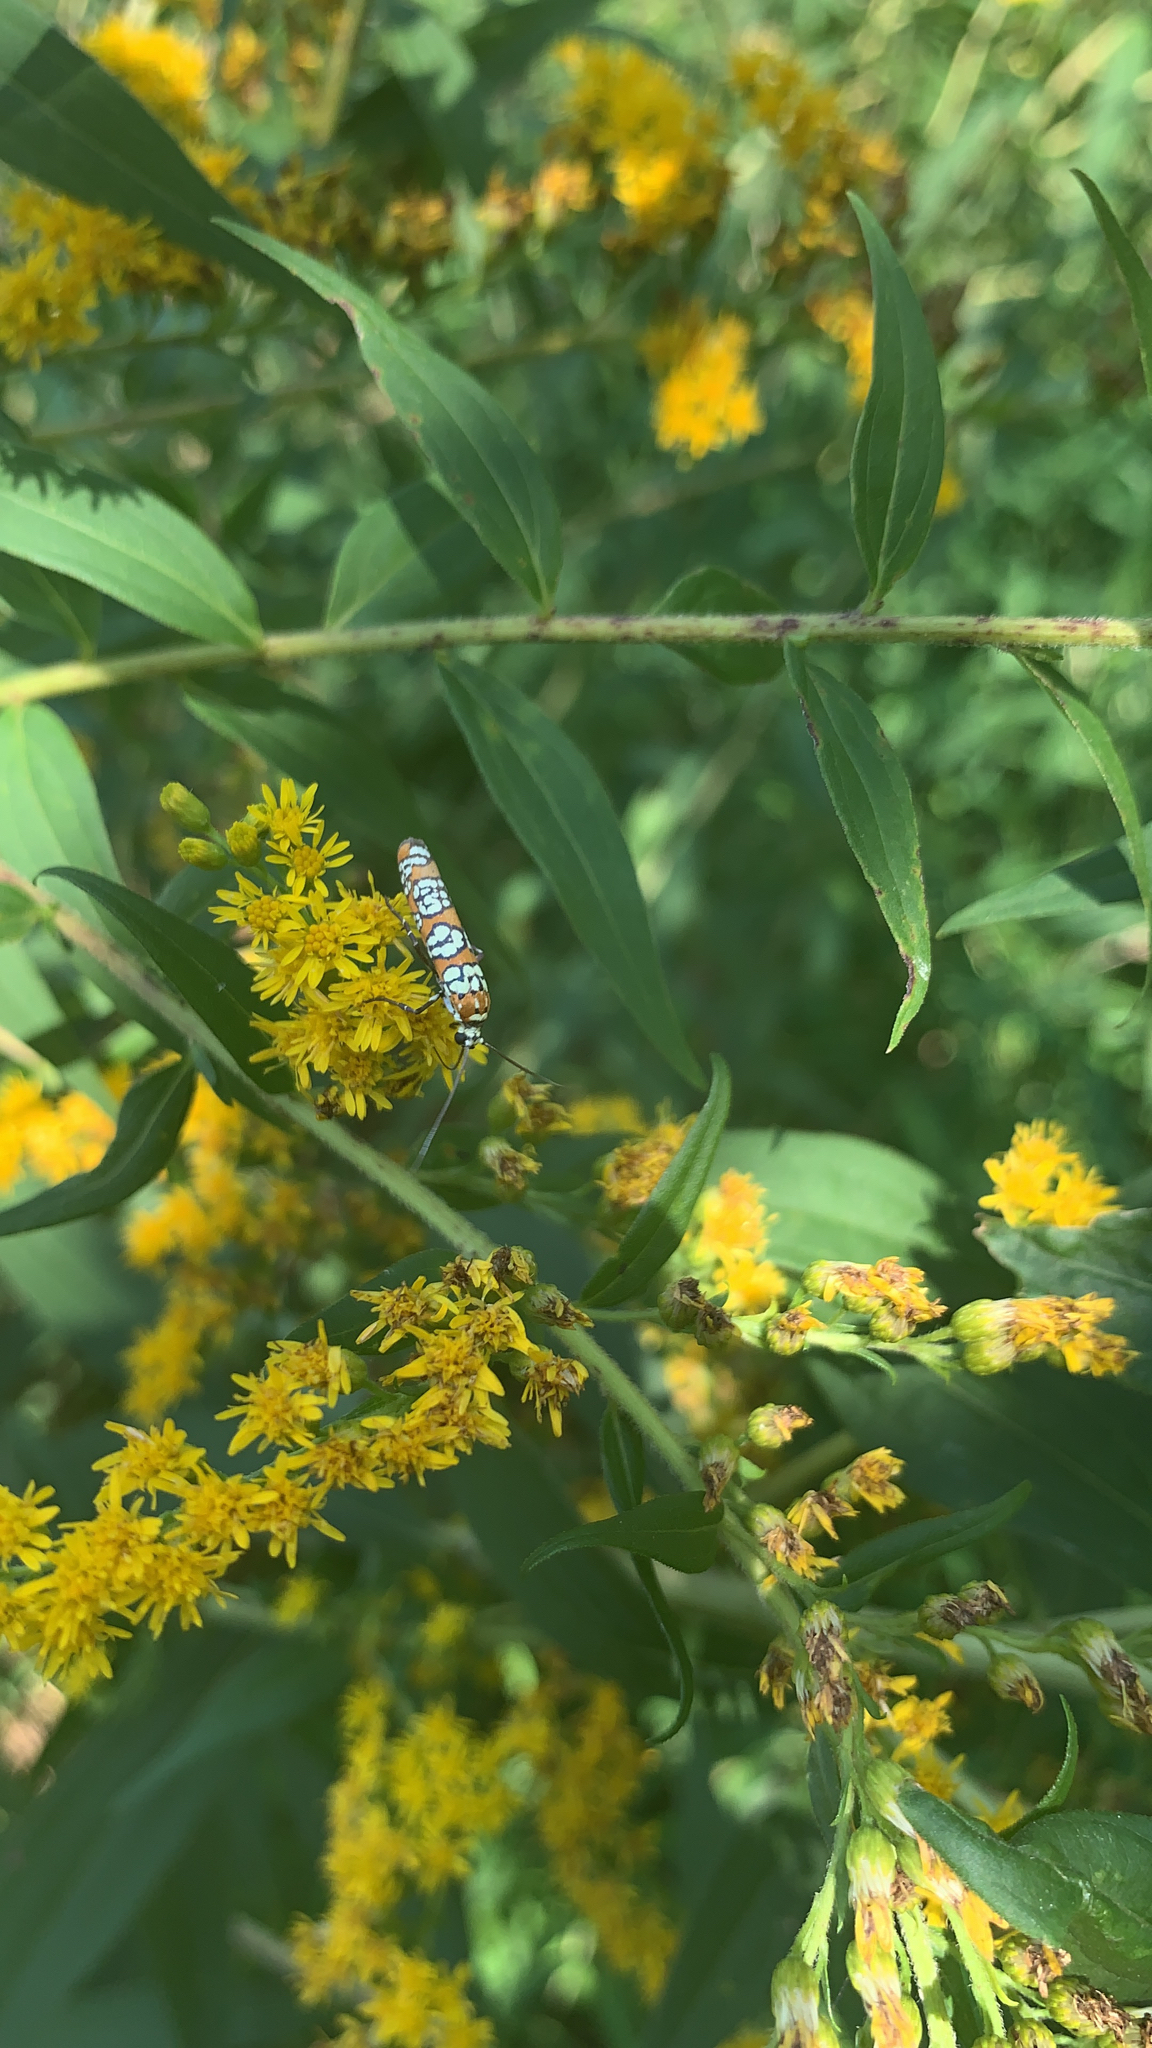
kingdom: Animalia
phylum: Arthropoda
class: Insecta
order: Lepidoptera
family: Attevidae
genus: Atteva
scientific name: Atteva punctella
